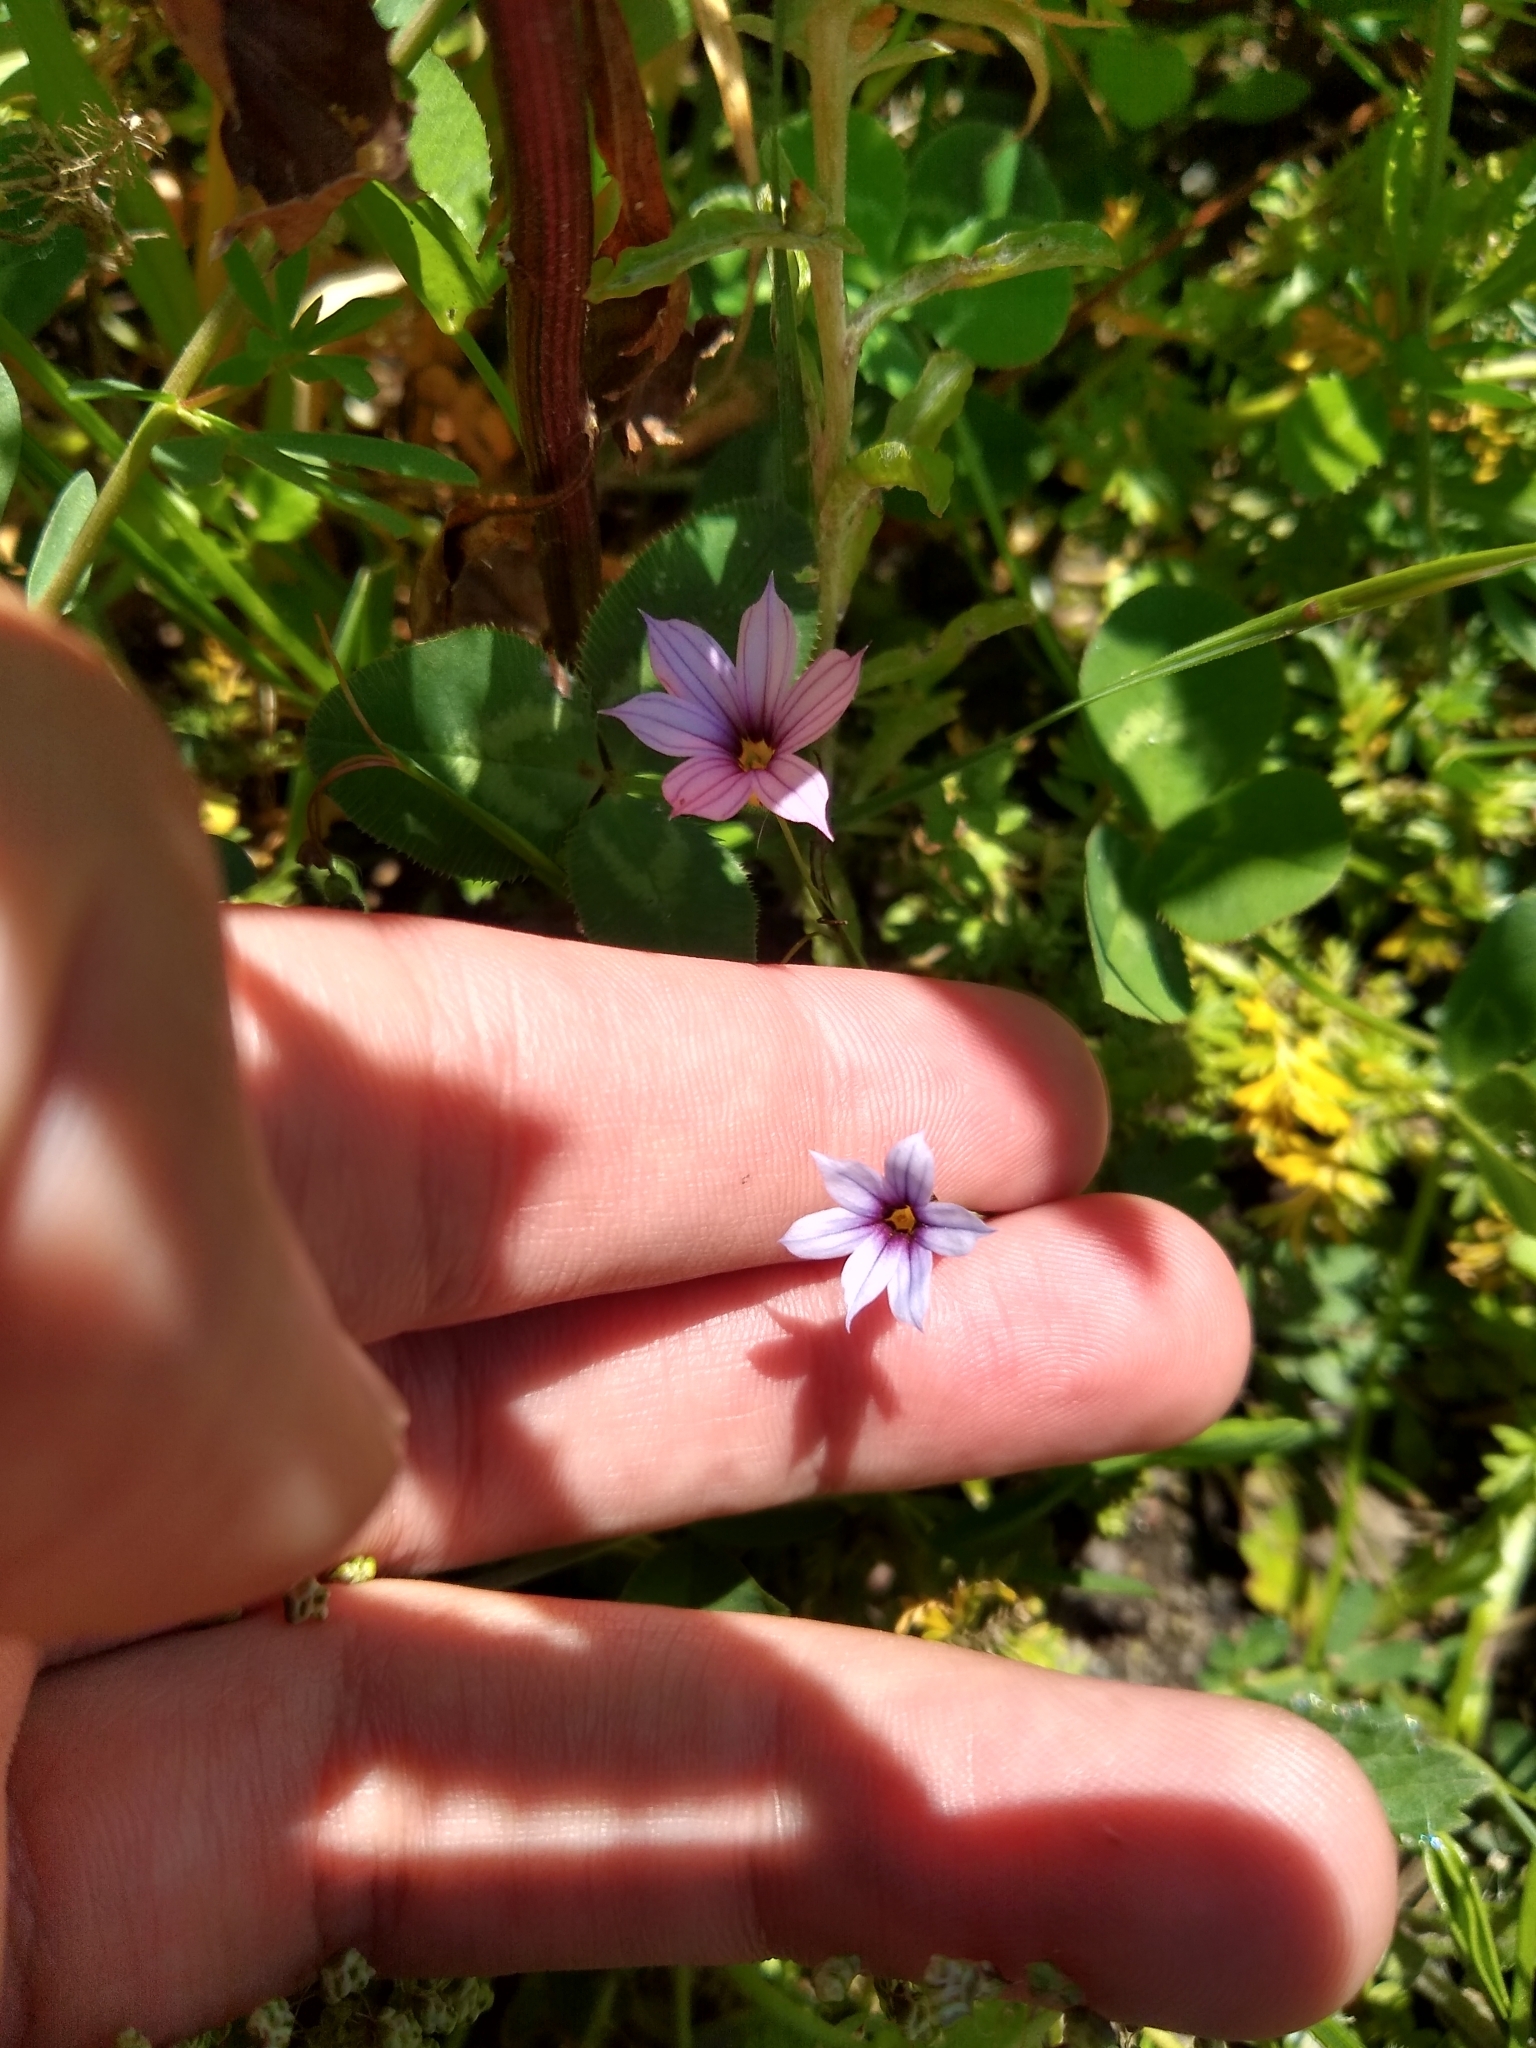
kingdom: Plantae
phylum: Tracheophyta
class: Liliopsida
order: Asparagales
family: Iridaceae
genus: Sisyrinchium
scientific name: Sisyrinchium platense
